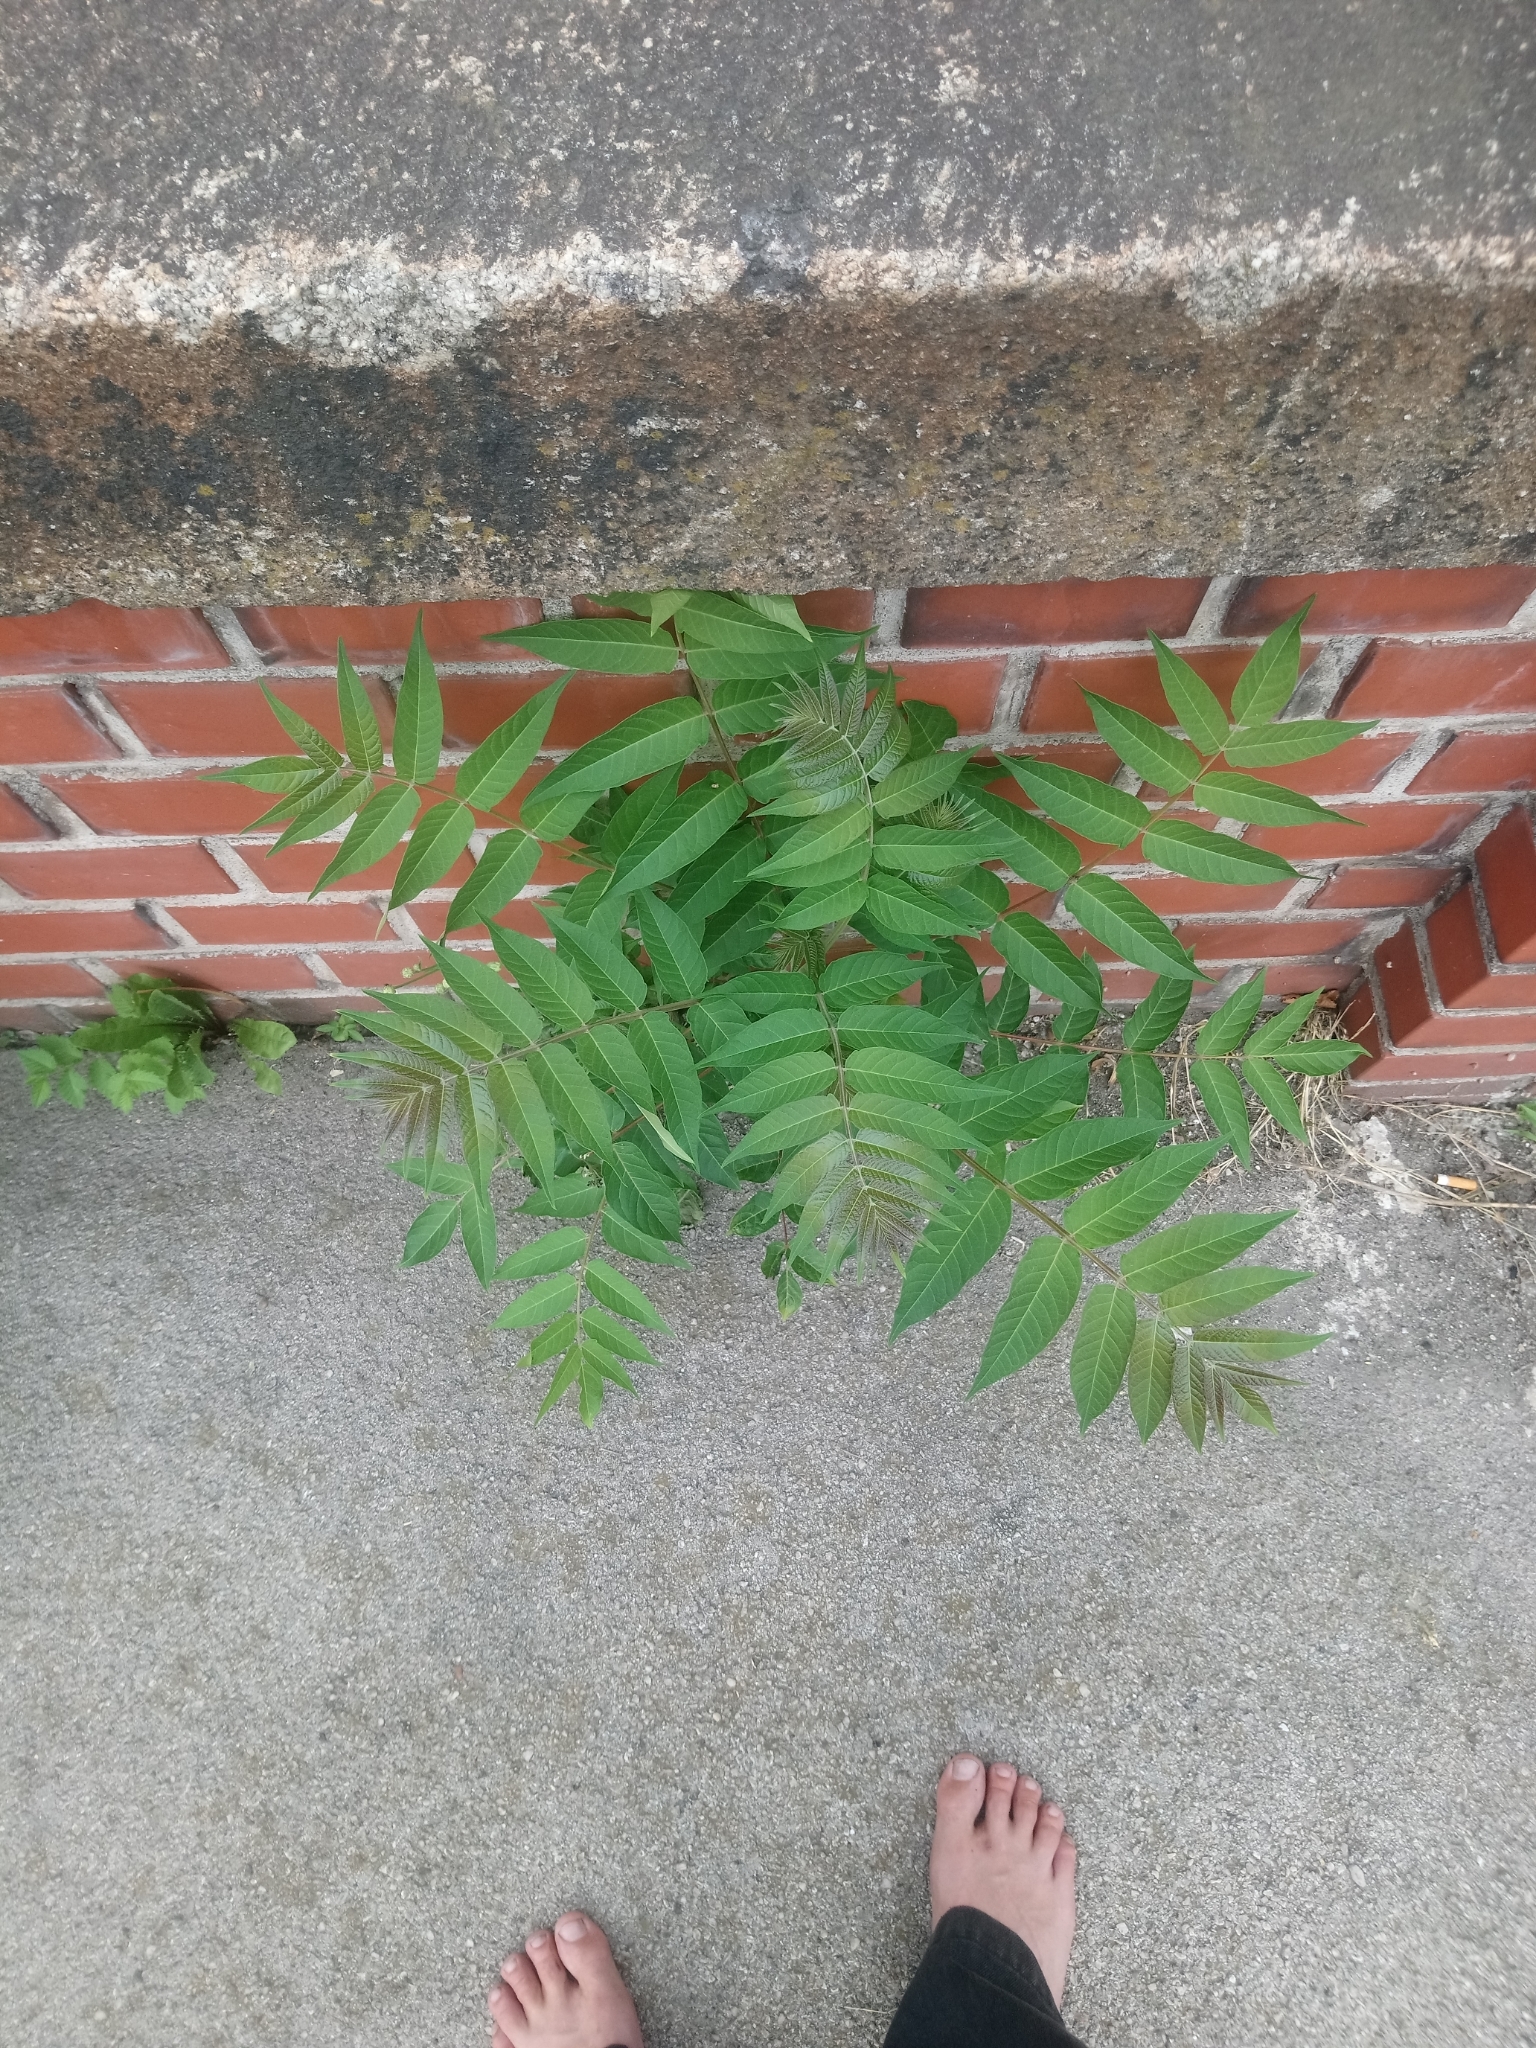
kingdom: Plantae
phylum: Tracheophyta
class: Magnoliopsida
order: Sapindales
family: Simaroubaceae
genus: Ailanthus
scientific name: Ailanthus altissima
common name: Tree-of-heaven
